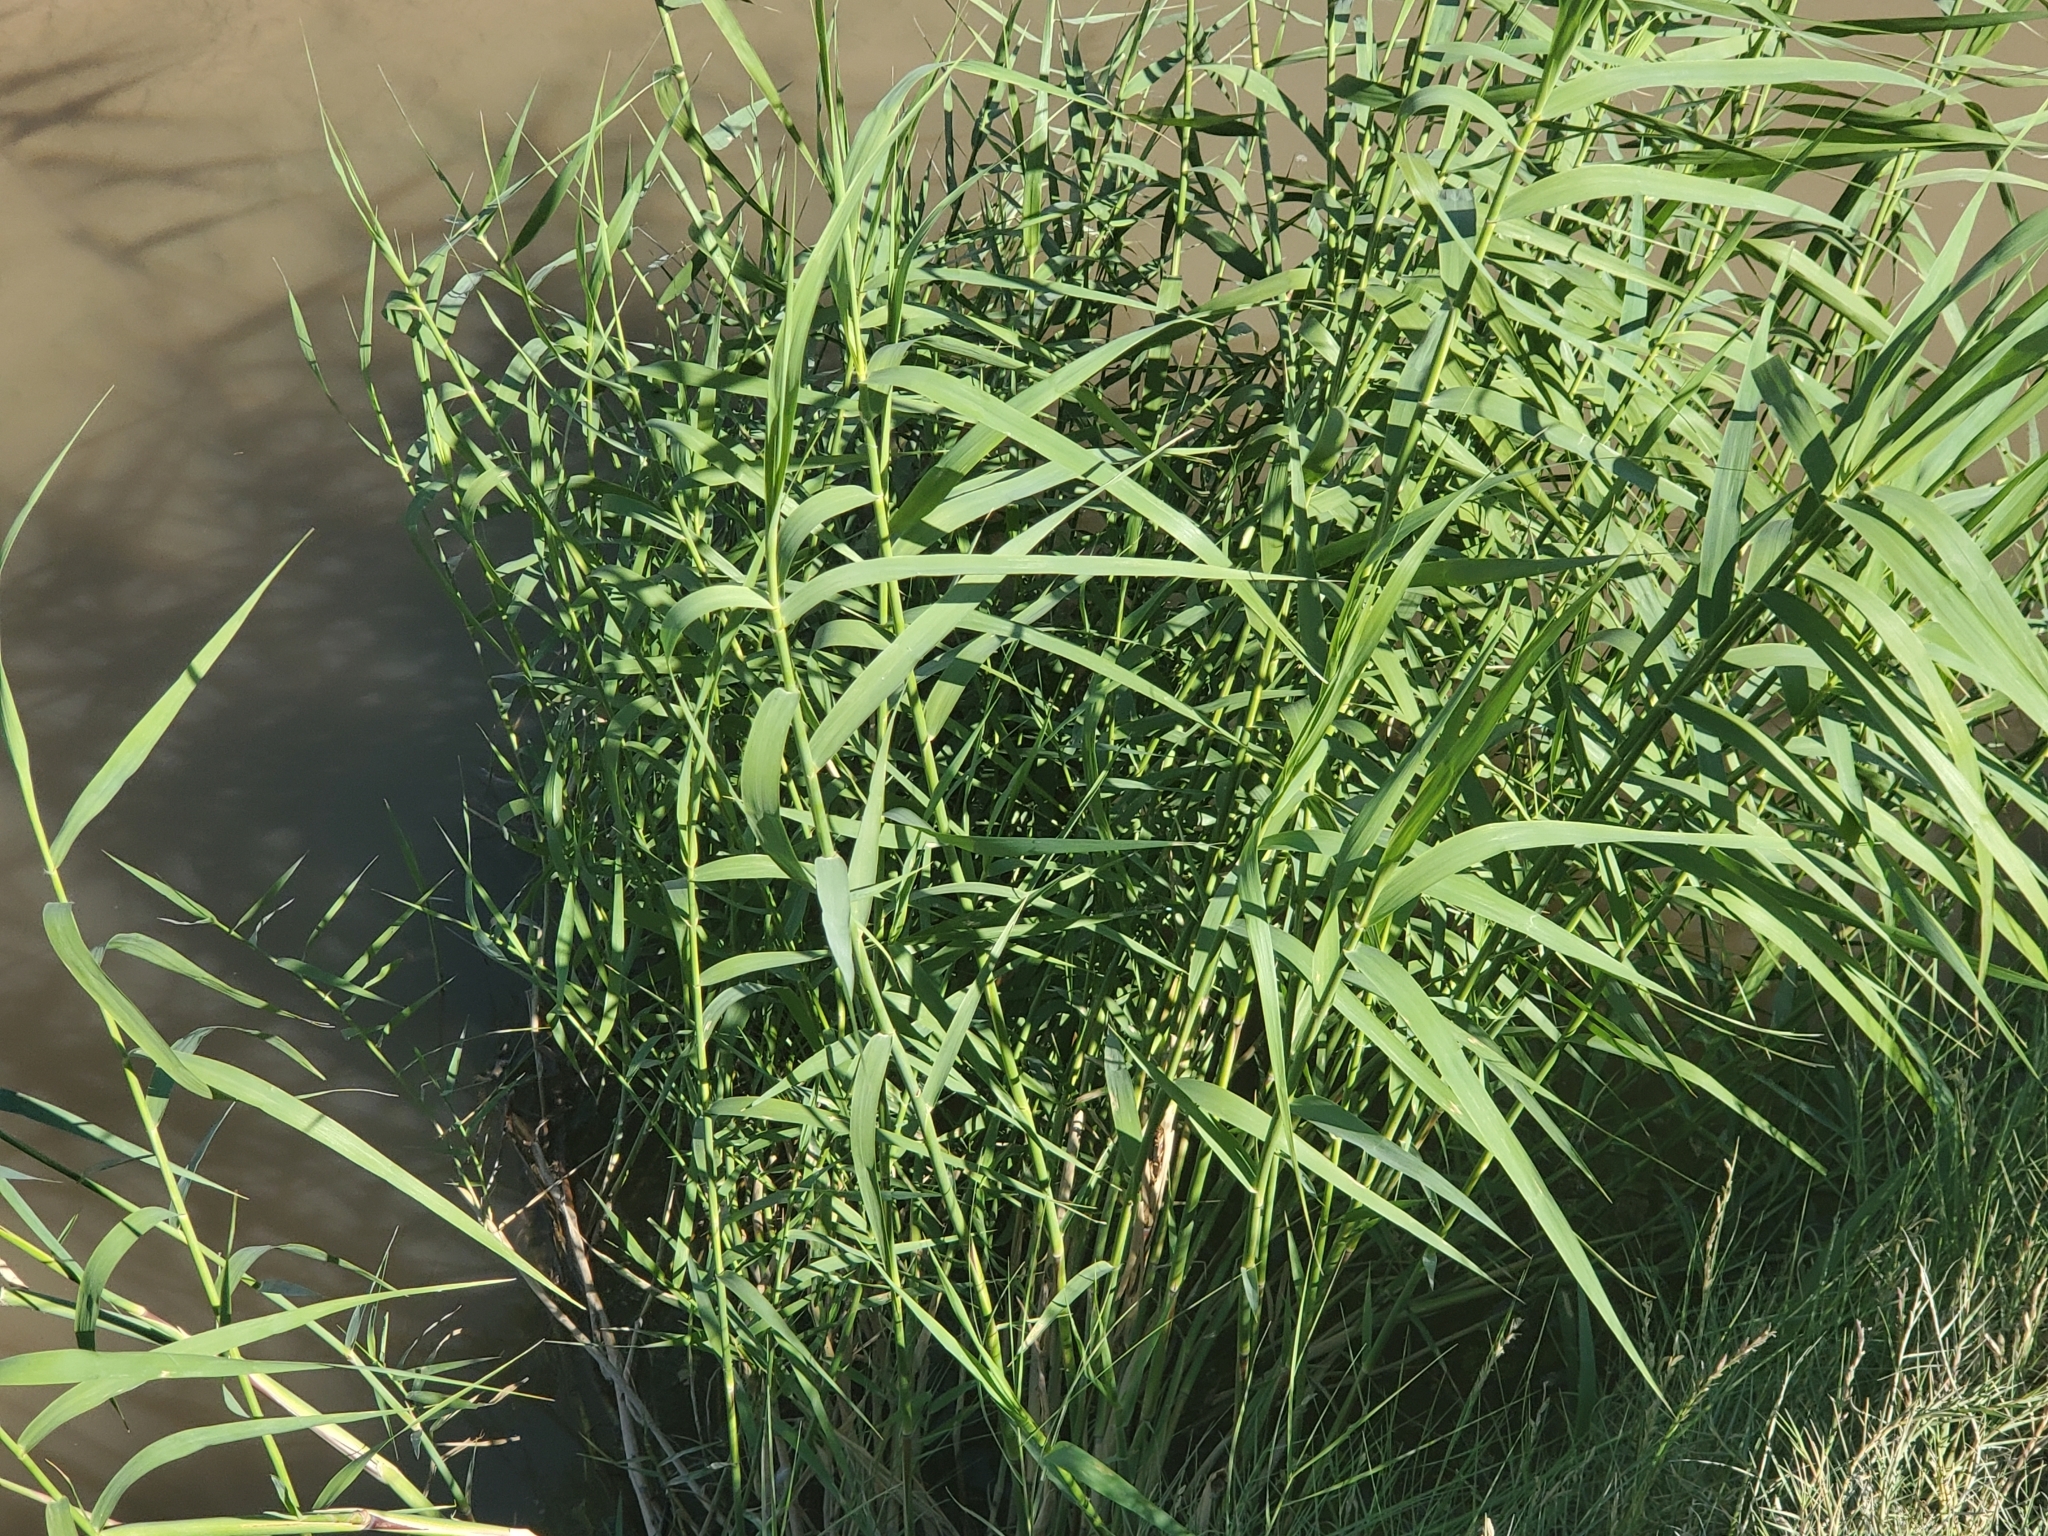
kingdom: Plantae
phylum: Tracheophyta
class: Liliopsida
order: Poales
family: Poaceae
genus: Arundo
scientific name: Arundo donax
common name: Giant reed
